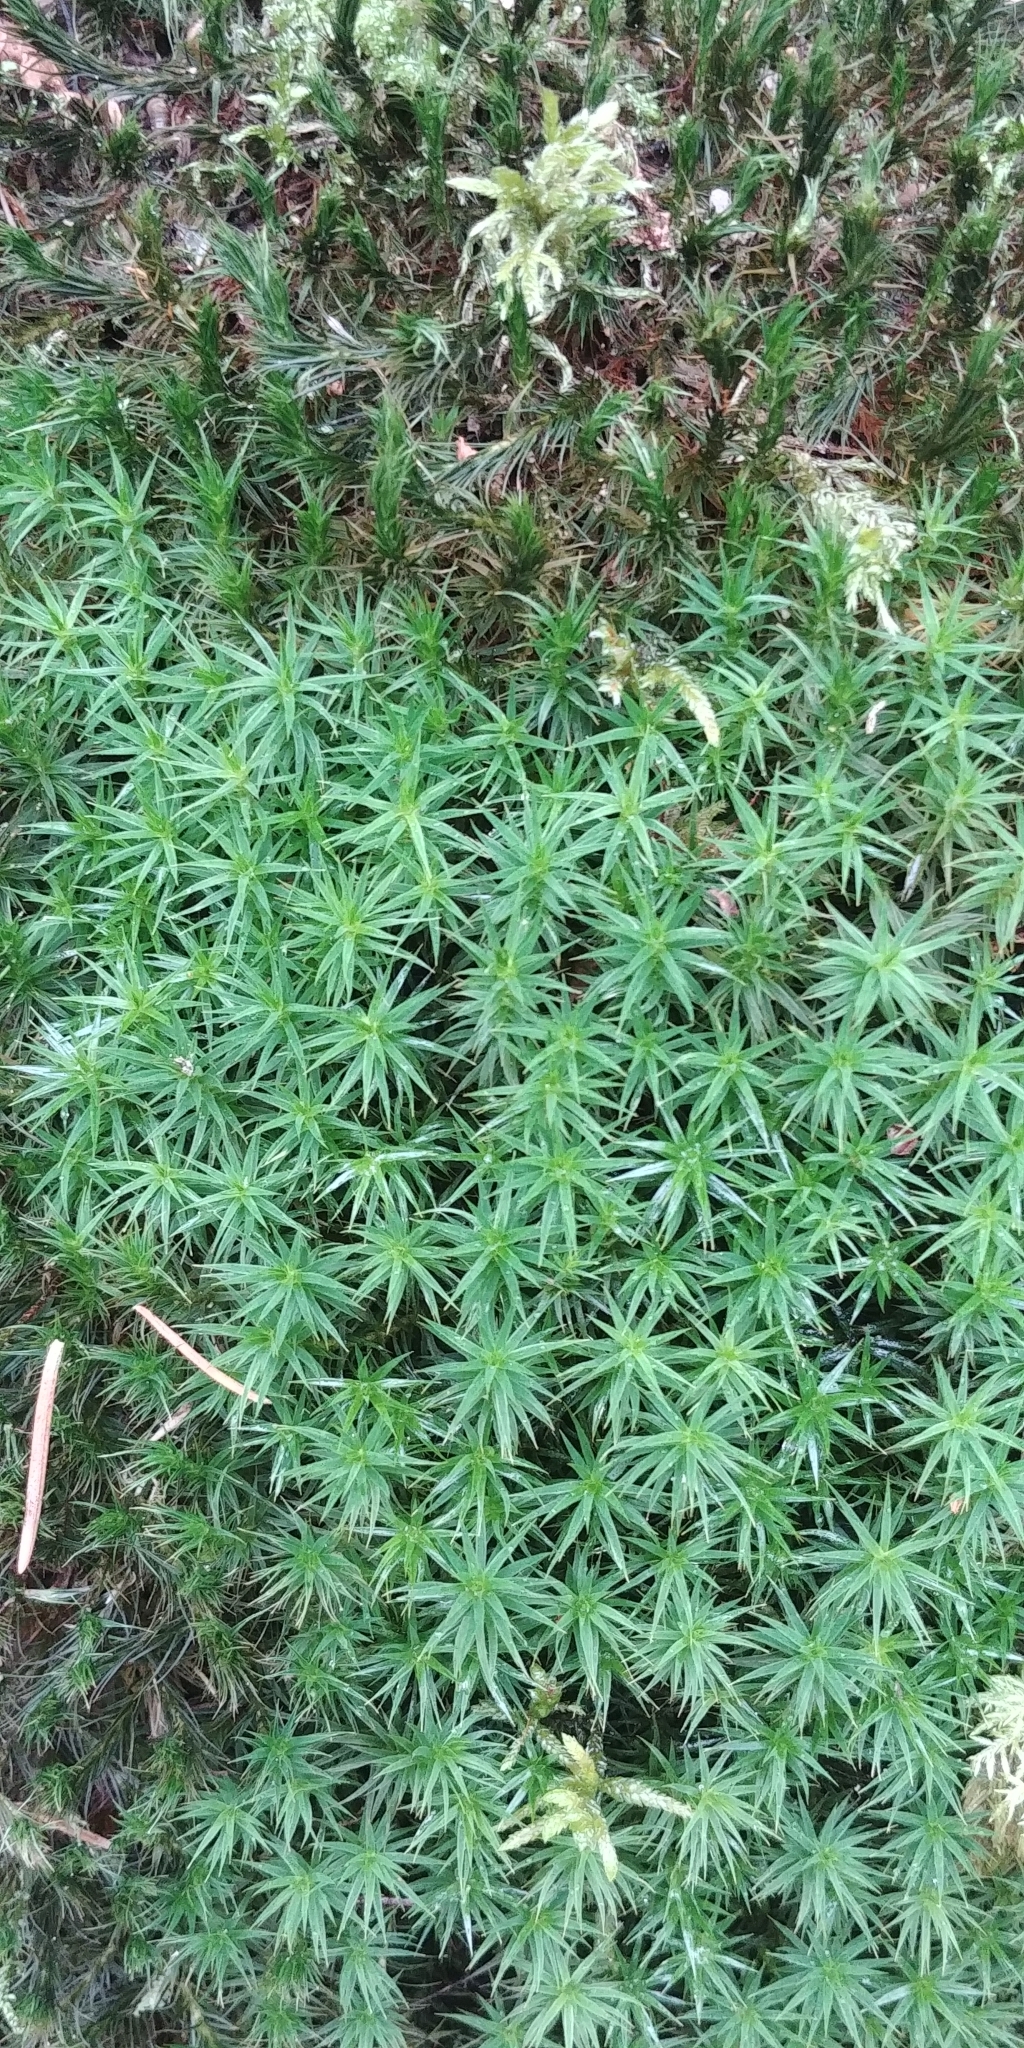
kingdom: Plantae
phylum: Bryophyta
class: Polytrichopsida
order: Polytrichales
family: Polytrichaceae
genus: Polytrichum
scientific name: Polytrichum formosum
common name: Bank haircap moss
